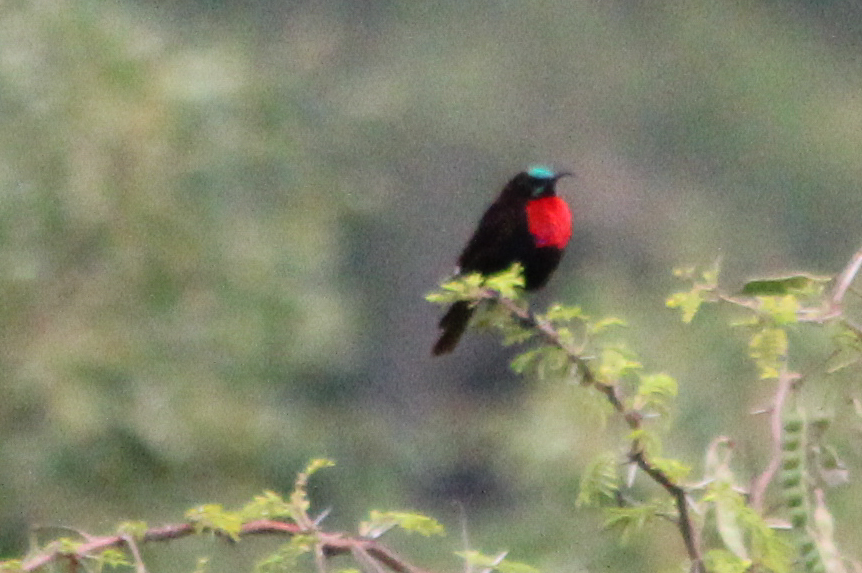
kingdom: Animalia
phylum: Chordata
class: Aves
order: Passeriformes
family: Nectariniidae
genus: Chalcomitra
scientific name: Chalcomitra senegalensis
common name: Scarlet-chested sunbird
